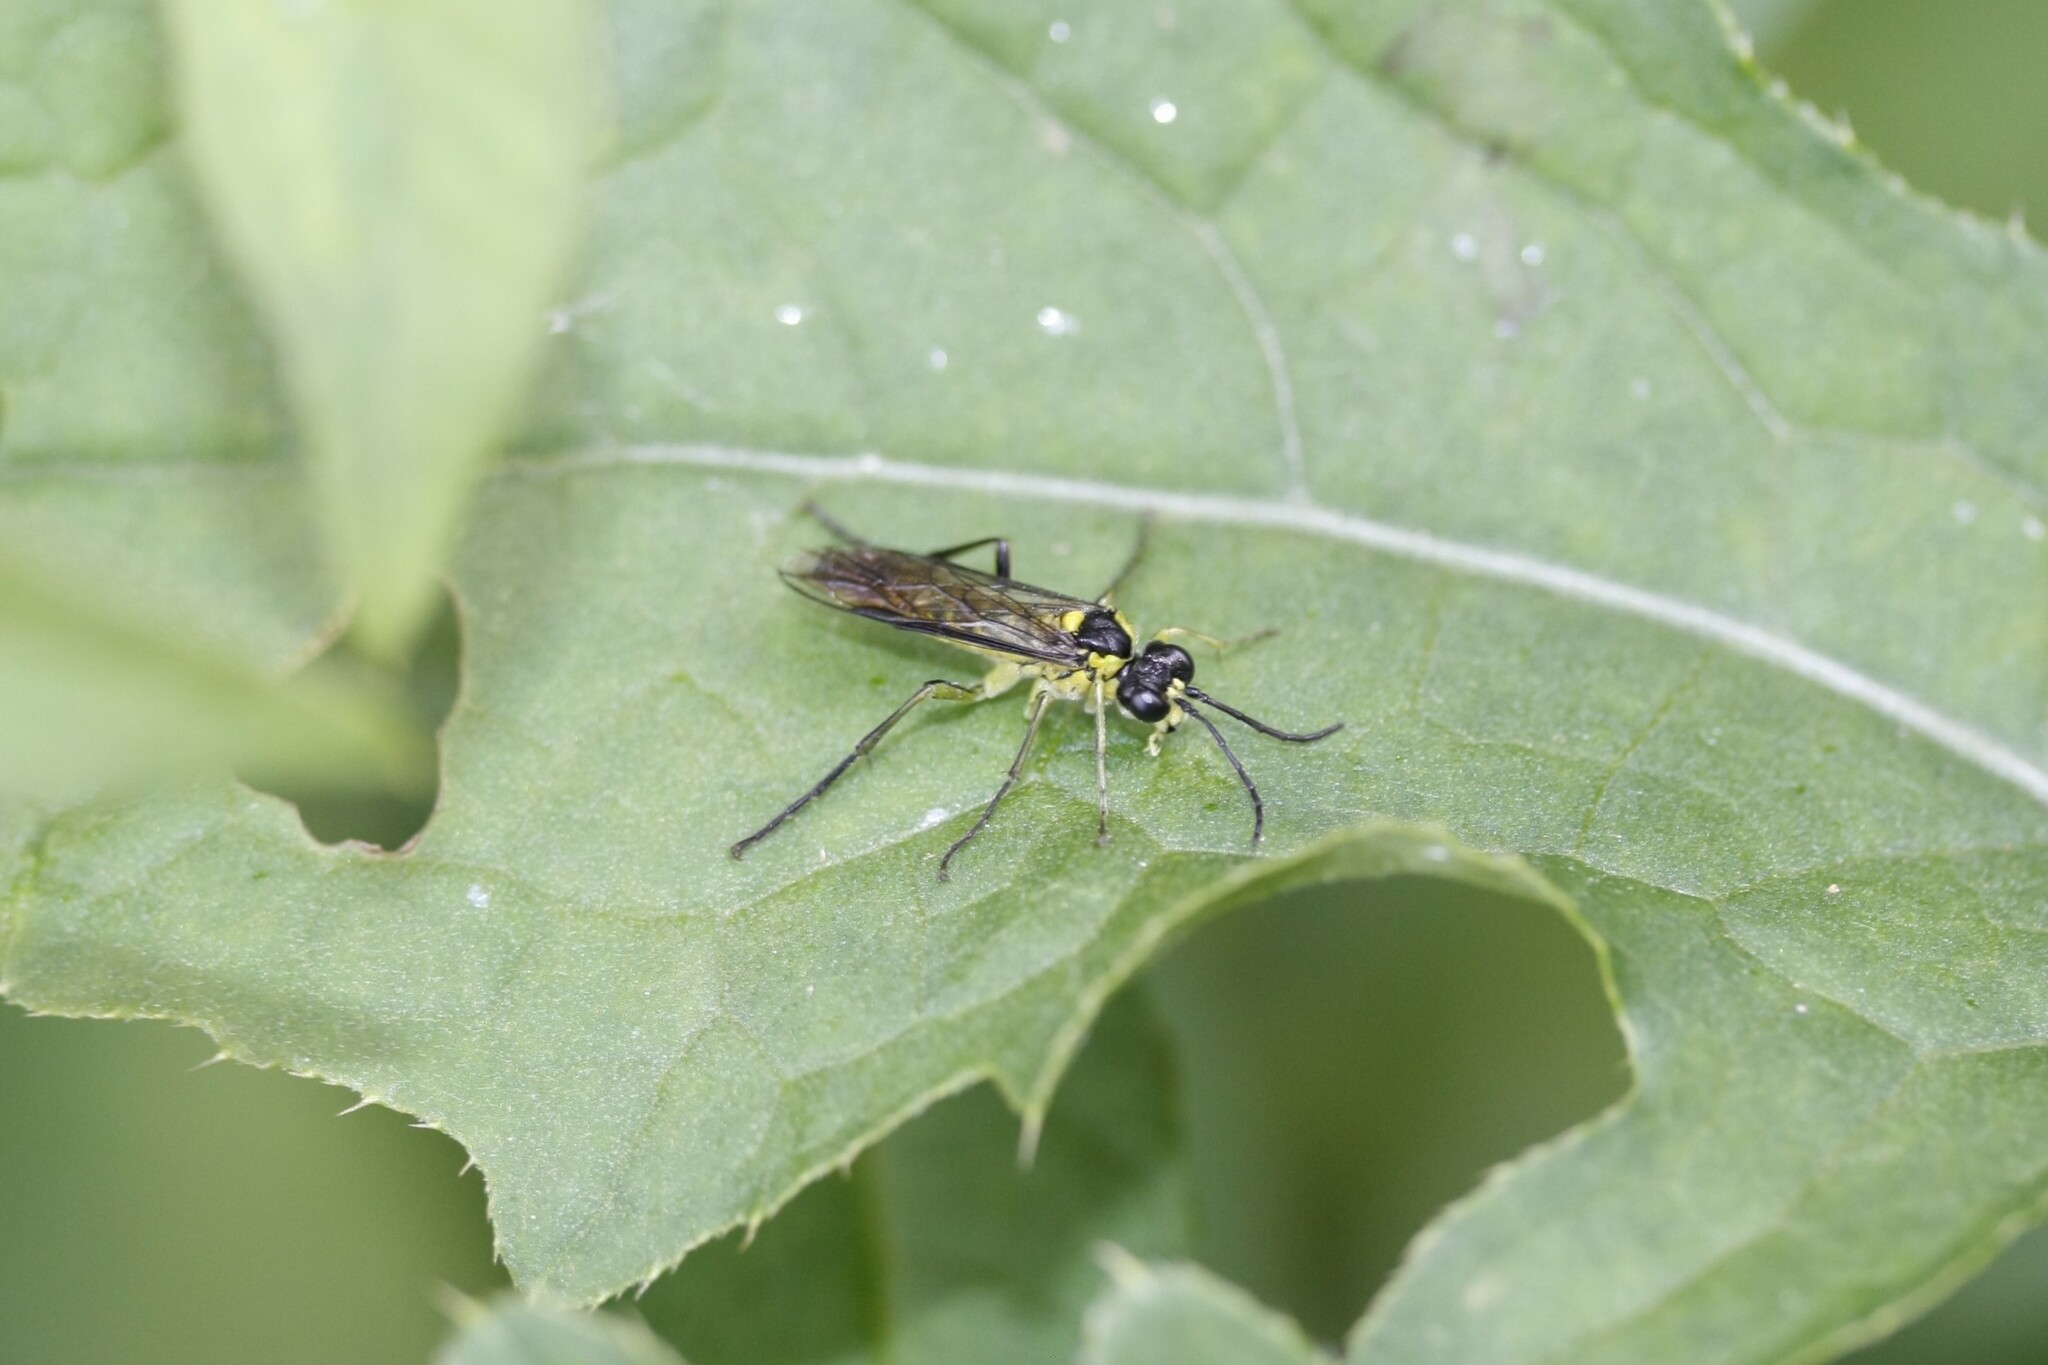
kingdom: Animalia
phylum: Arthropoda
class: Insecta
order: Hymenoptera
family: Tenthredinidae
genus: Tenthredo
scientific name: Tenthredo mesomela
